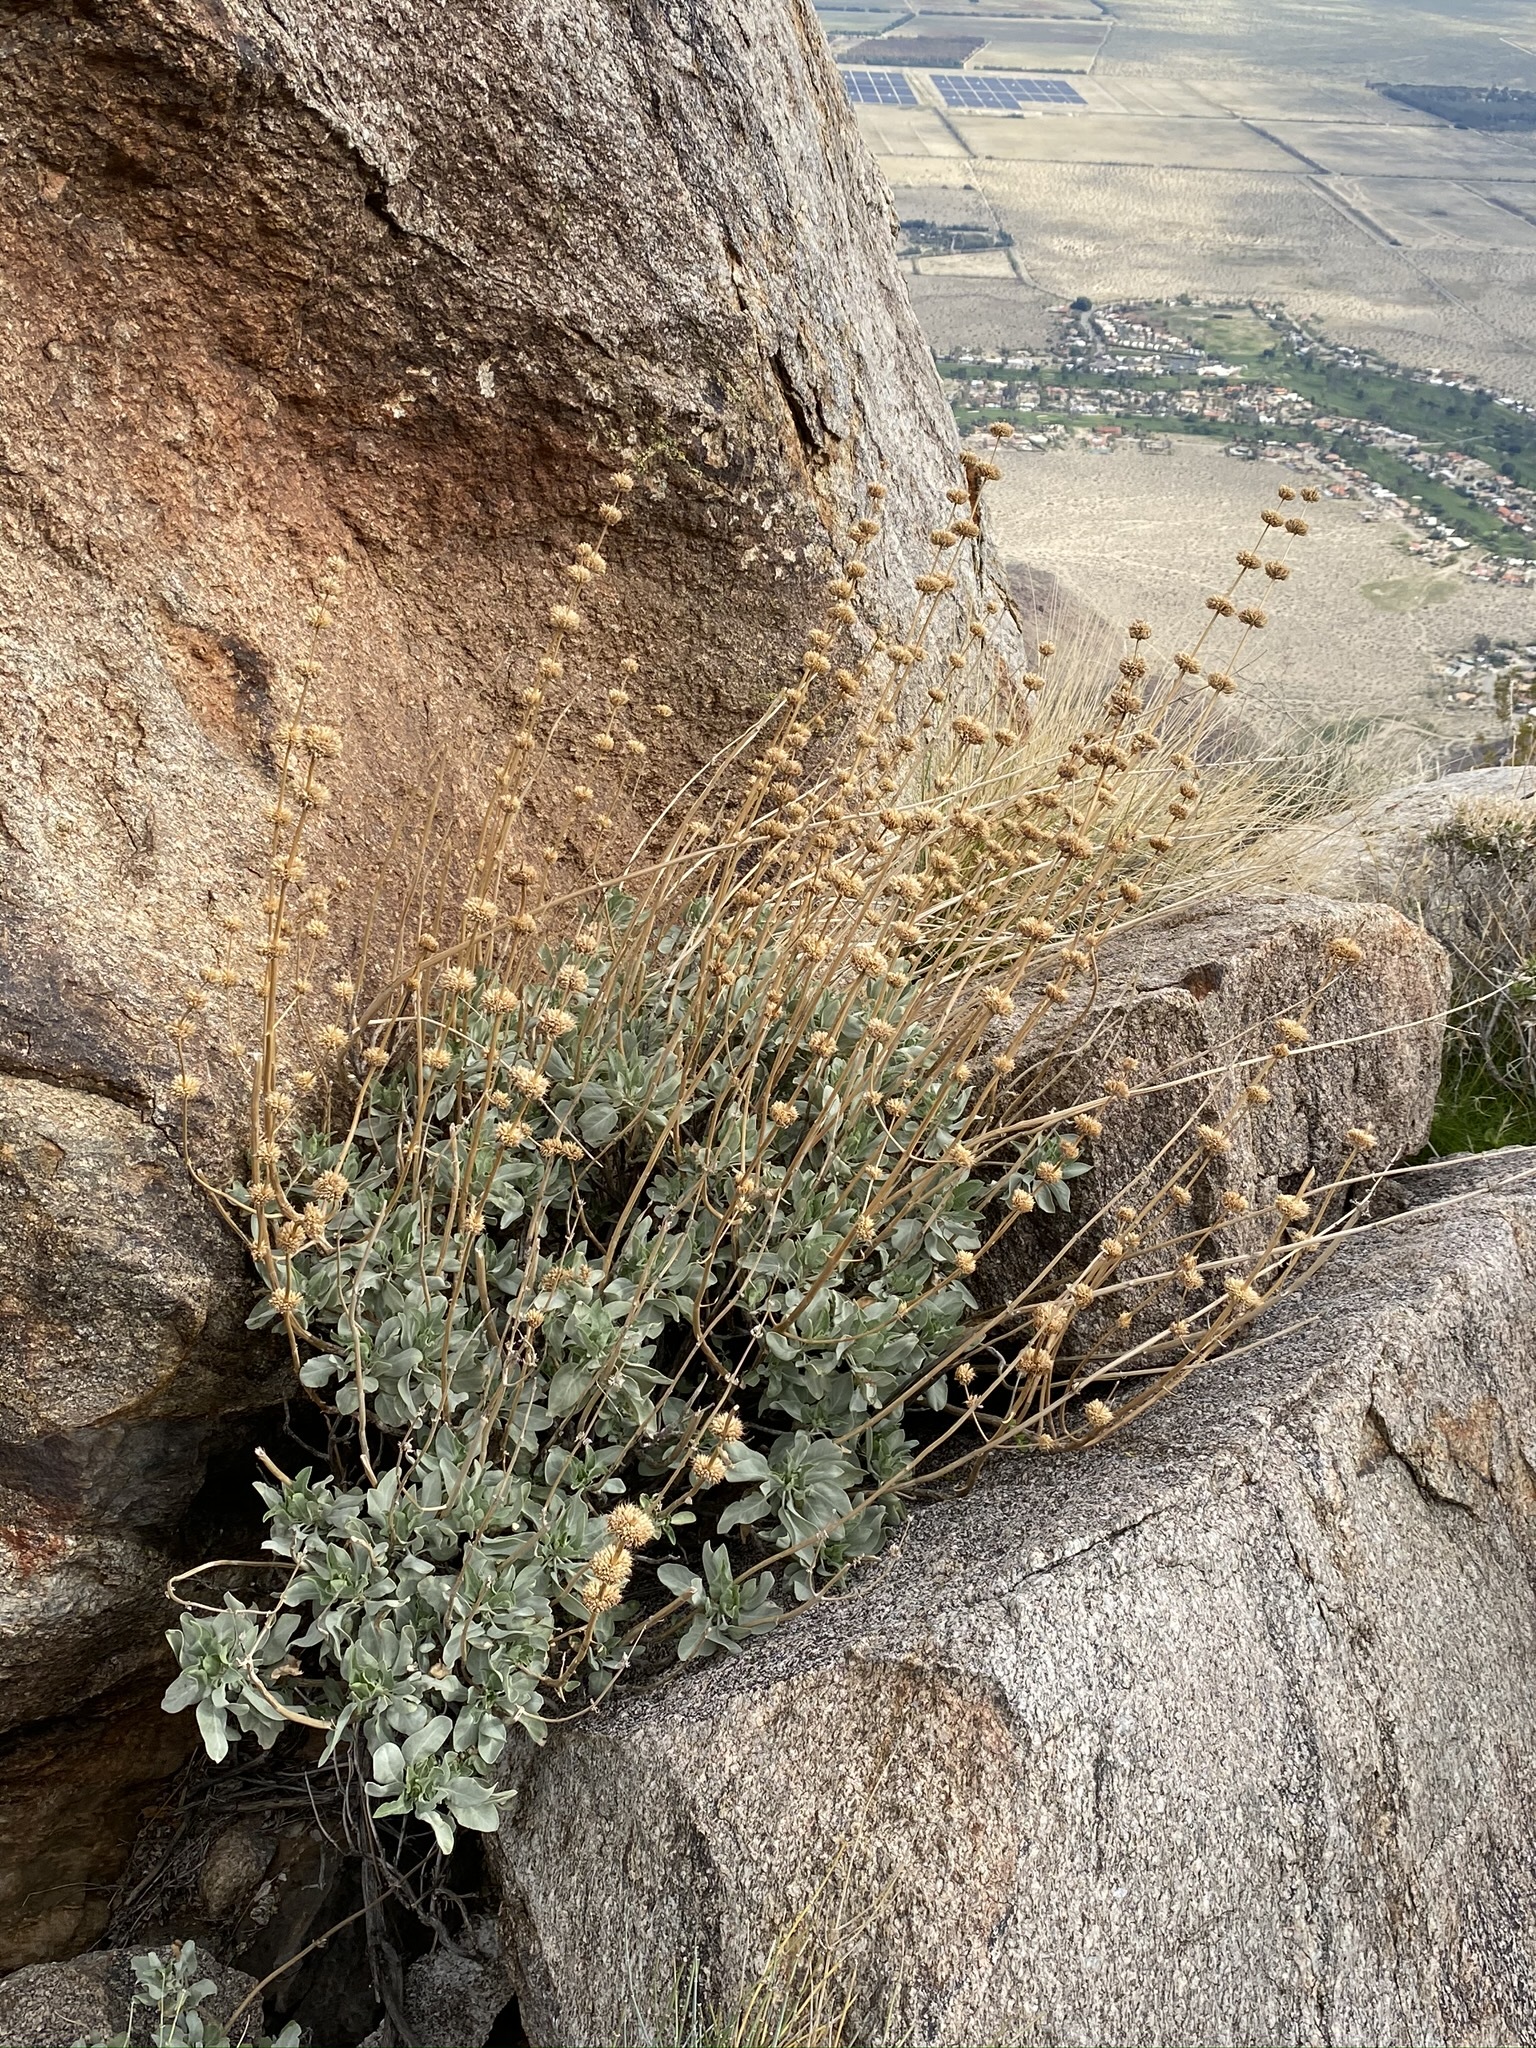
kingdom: Plantae
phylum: Tracheophyta
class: Magnoliopsida
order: Lamiales
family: Lamiaceae
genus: Salvia
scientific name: Salvia vaseyi
